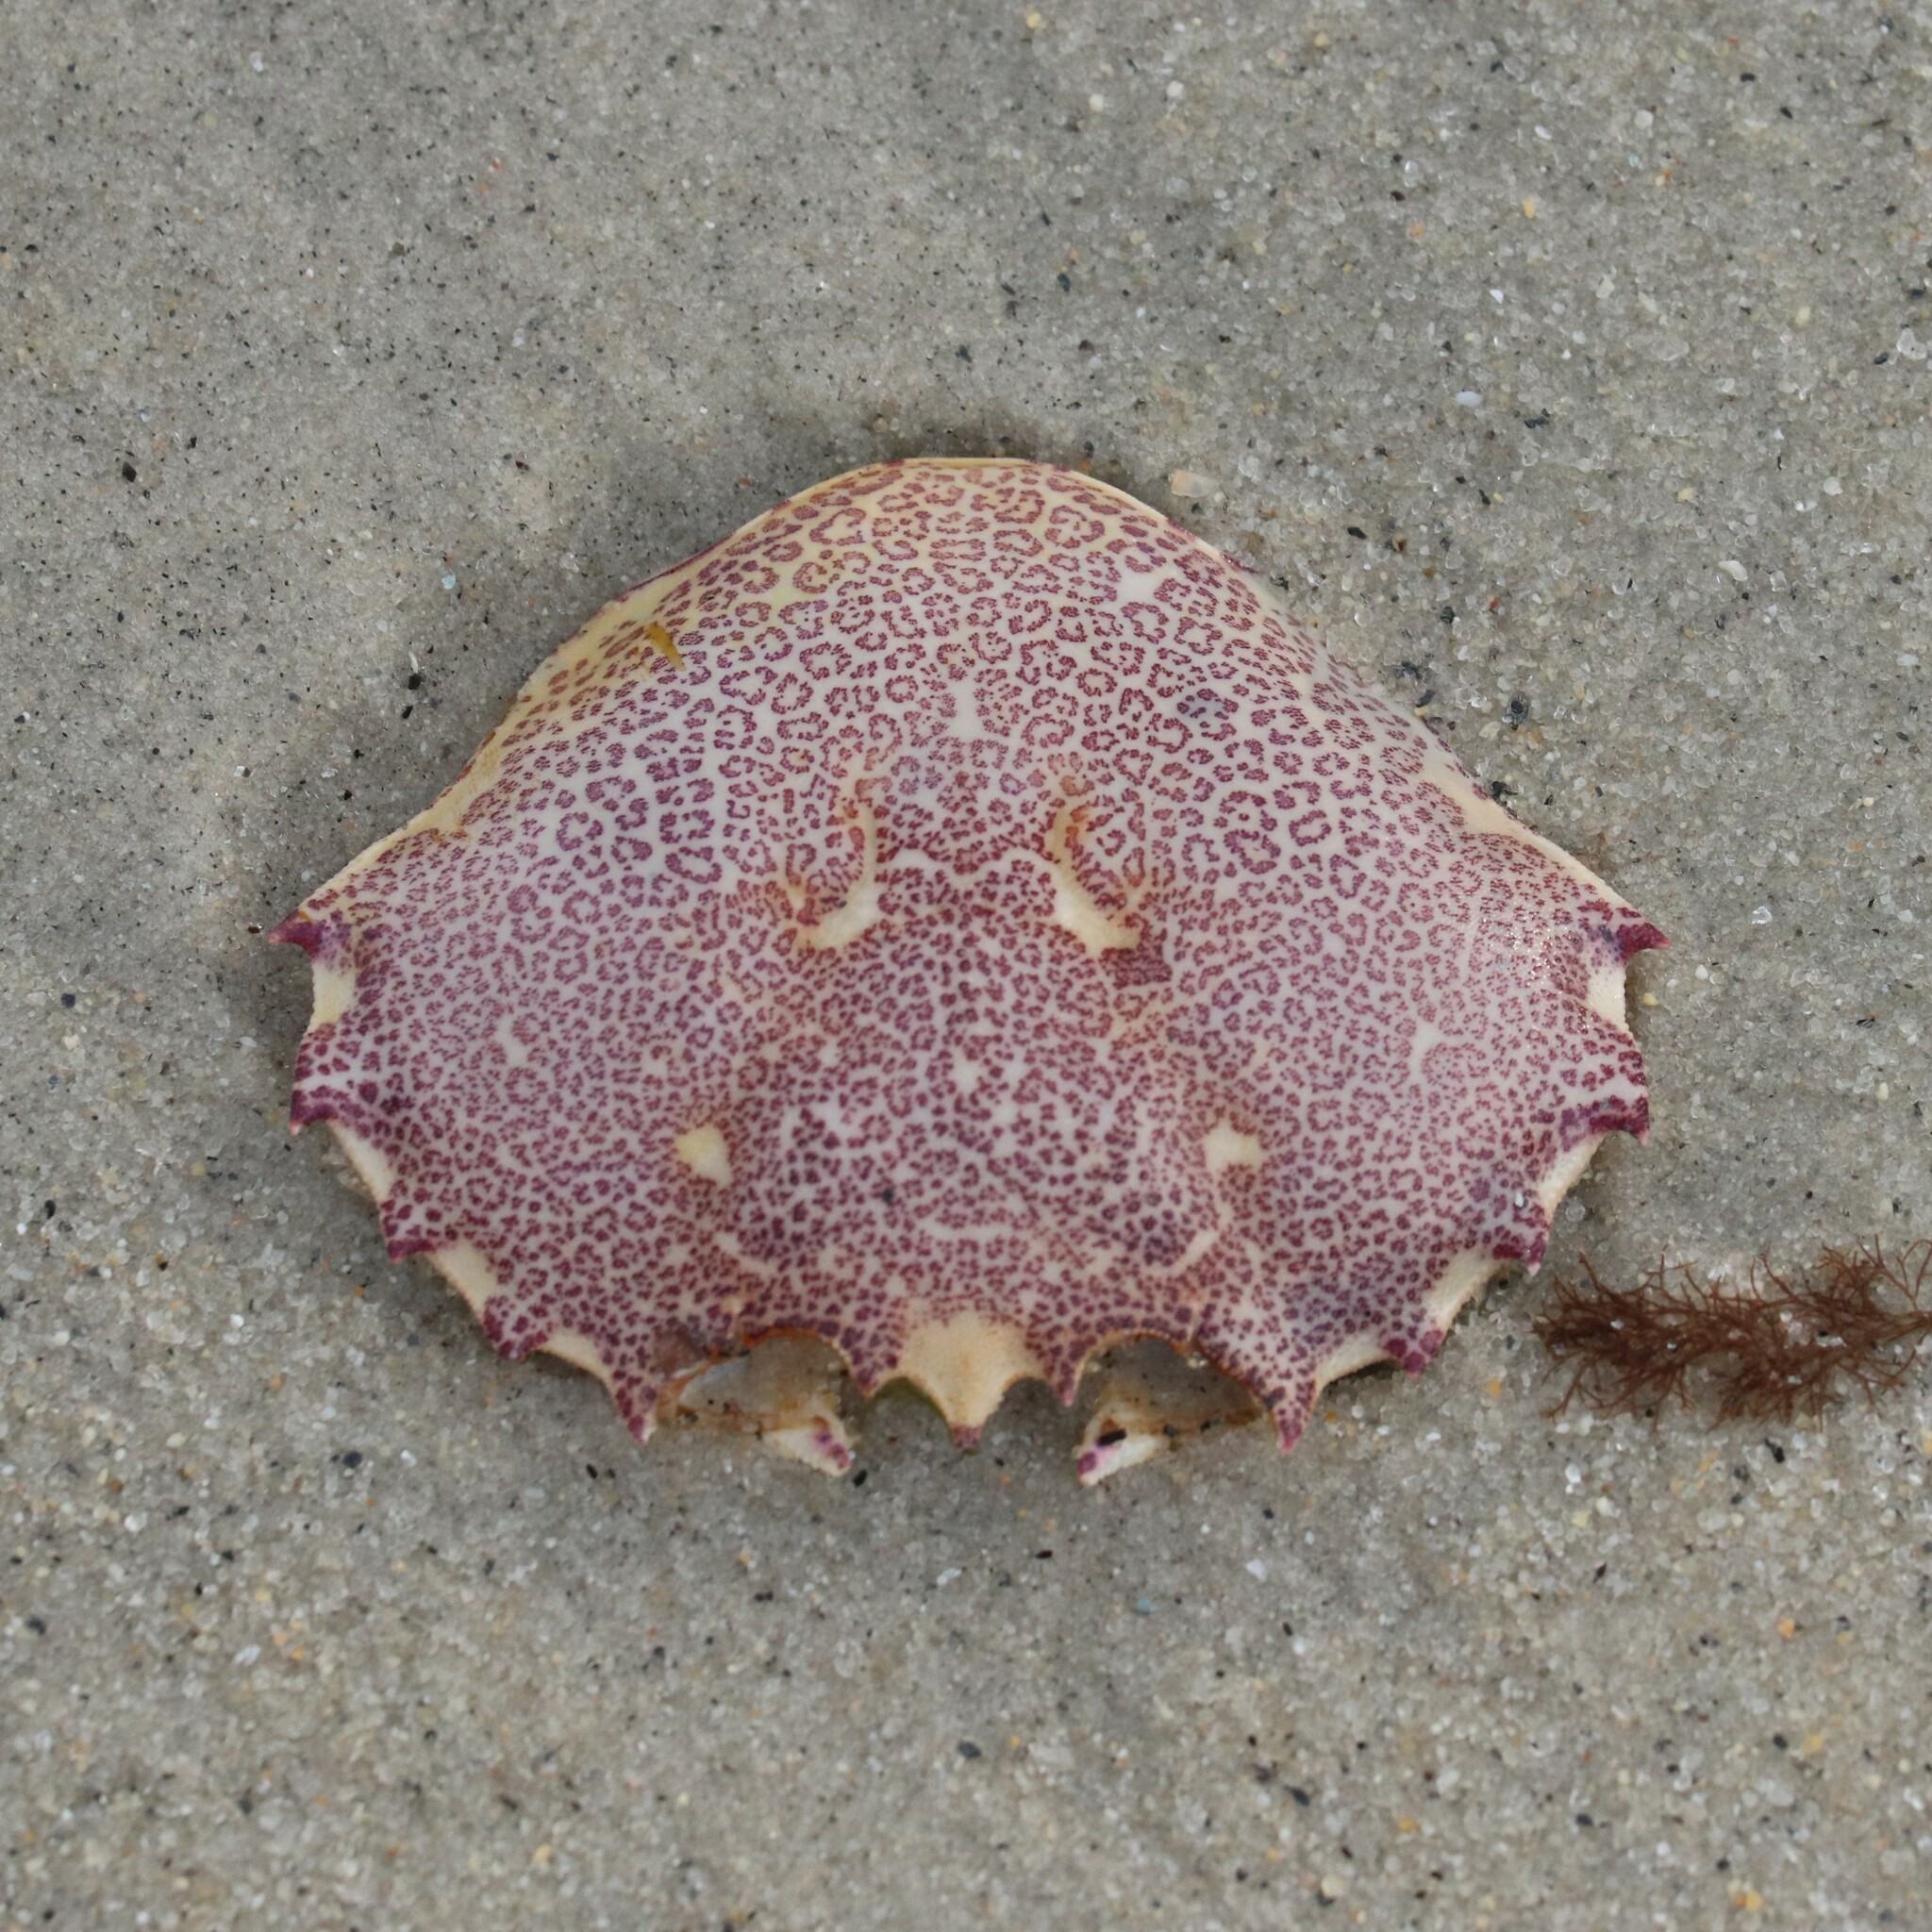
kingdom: Animalia
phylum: Arthropoda
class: Malacostraca
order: Decapoda
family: Ovalipidae
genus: Ovalipes
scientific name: Ovalipes ocellatus
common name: Lady crab
